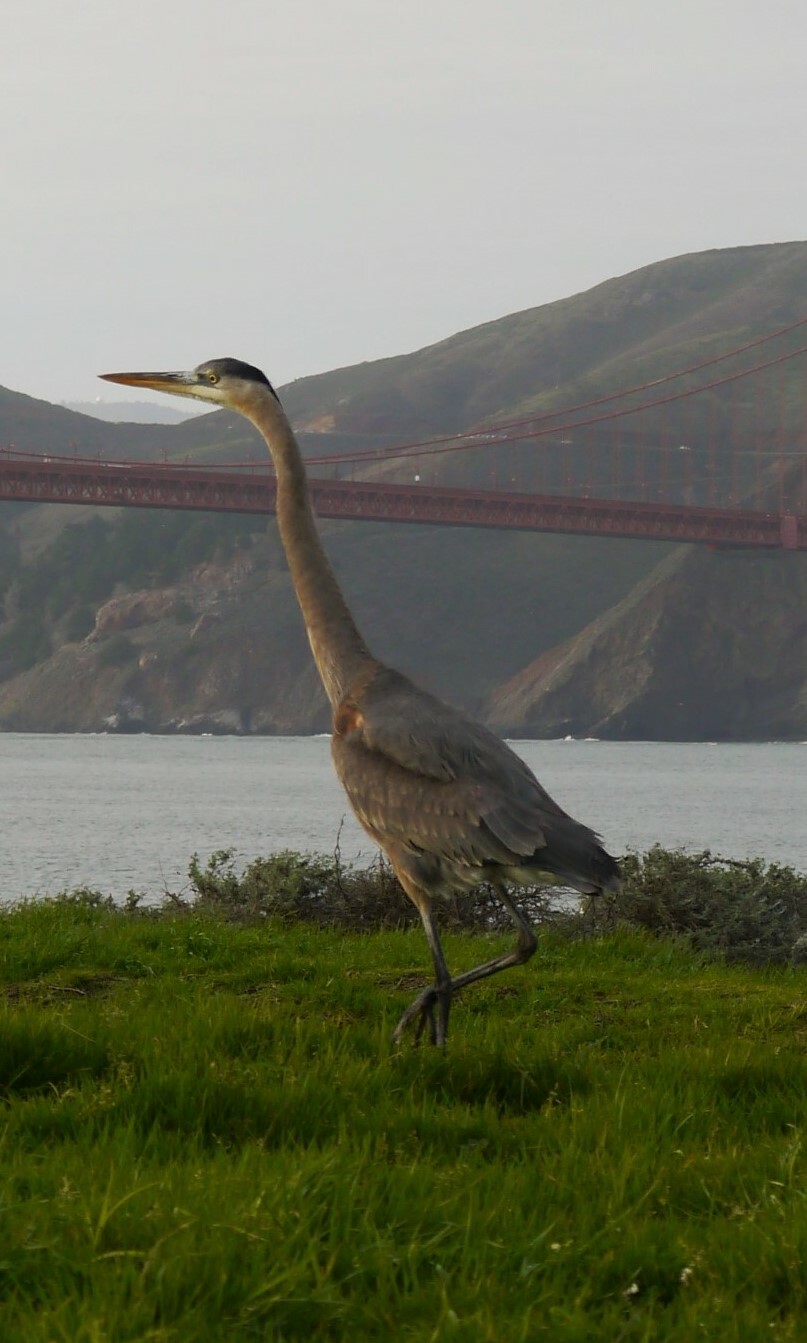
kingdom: Animalia
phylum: Chordata
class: Aves
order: Pelecaniformes
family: Ardeidae
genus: Ardea
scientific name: Ardea herodias
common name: Great blue heron
